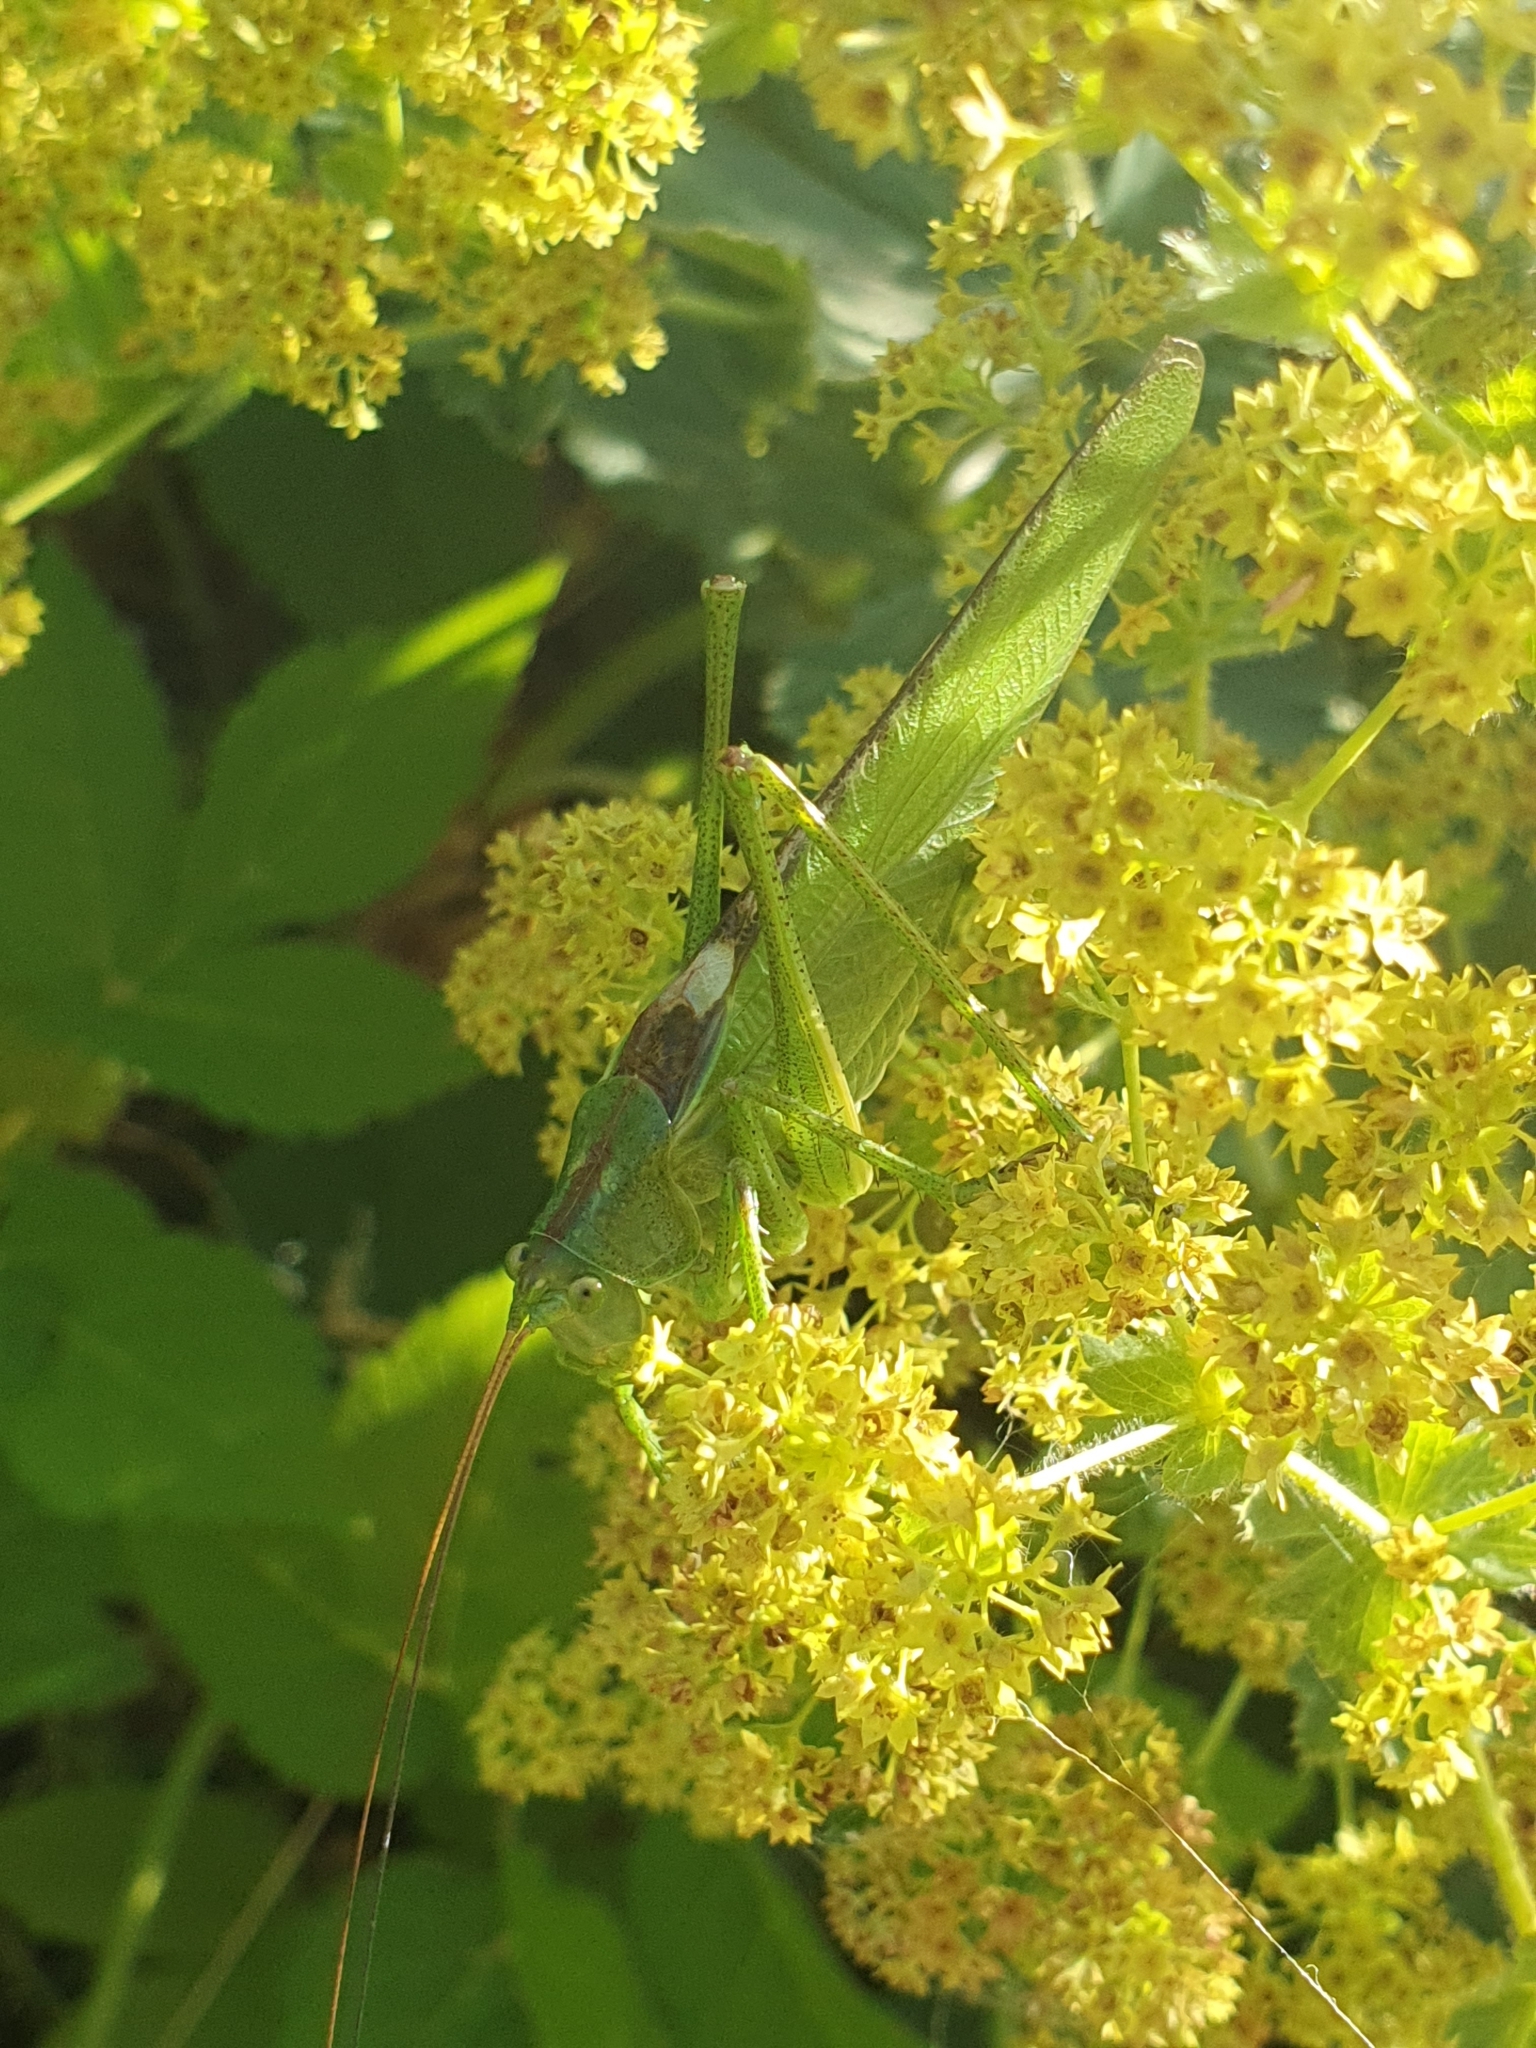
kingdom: Animalia
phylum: Arthropoda
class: Insecta
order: Orthoptera
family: Tettigoniidae
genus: Tettigonia
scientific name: Tettigonia viridissima
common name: Great green bush-cricket
